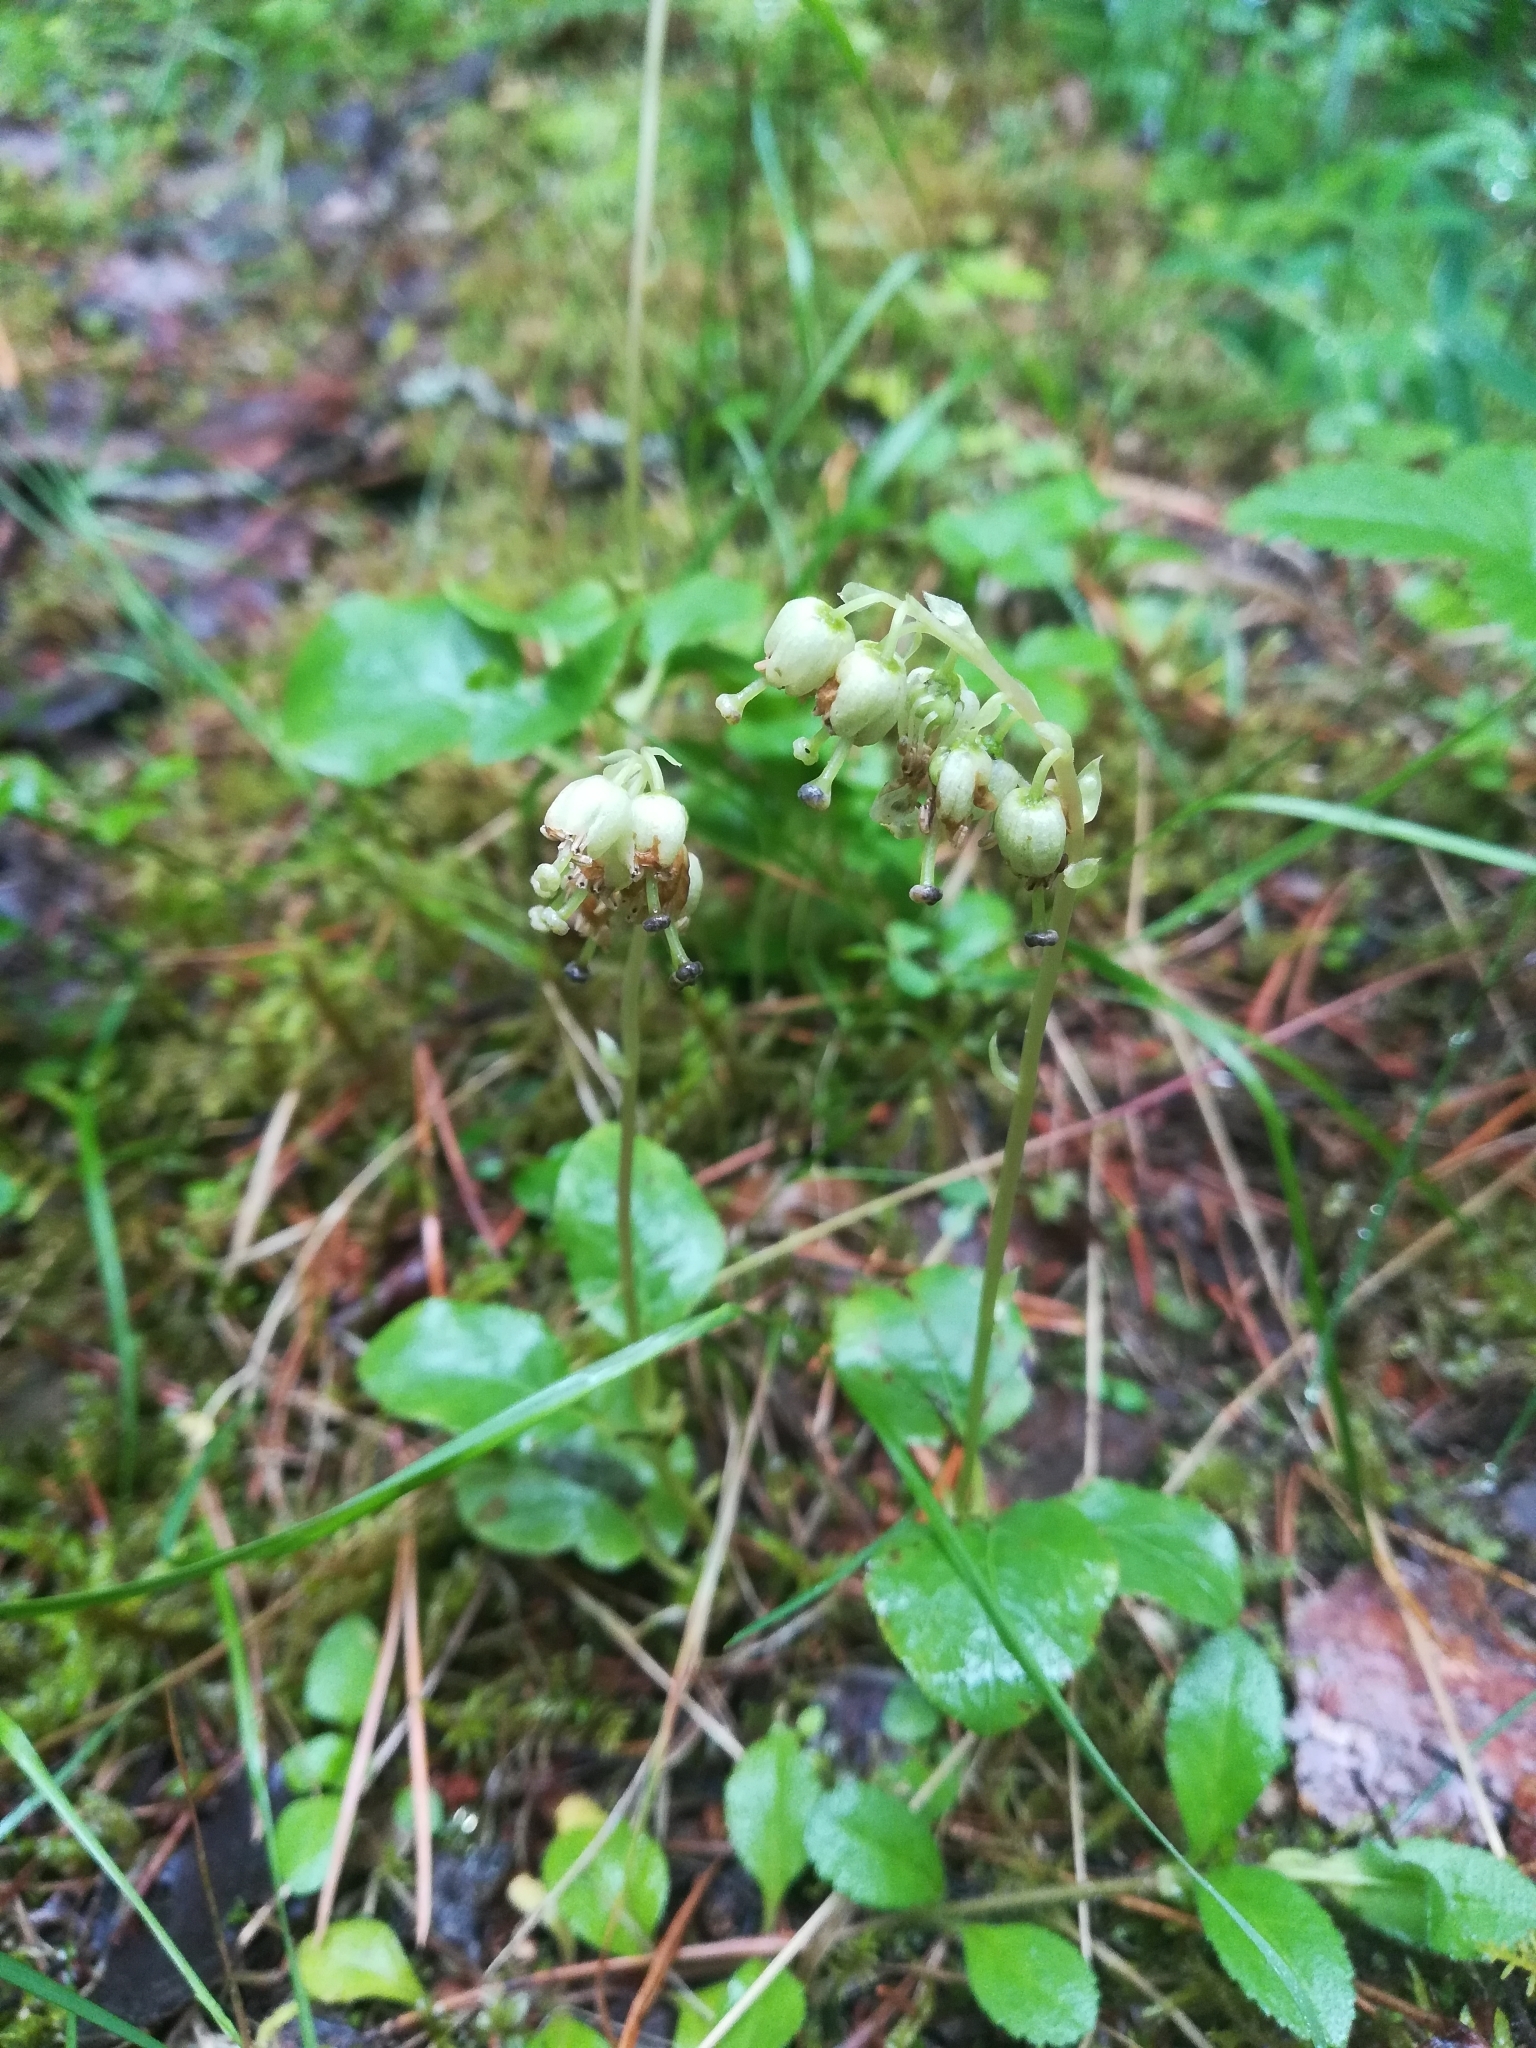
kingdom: Plantae
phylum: Tracheophyta
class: Magnoliopsida
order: Ericales
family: Ericaceae
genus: Orthilia
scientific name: Orthilia secunda
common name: One-sided orthilia
